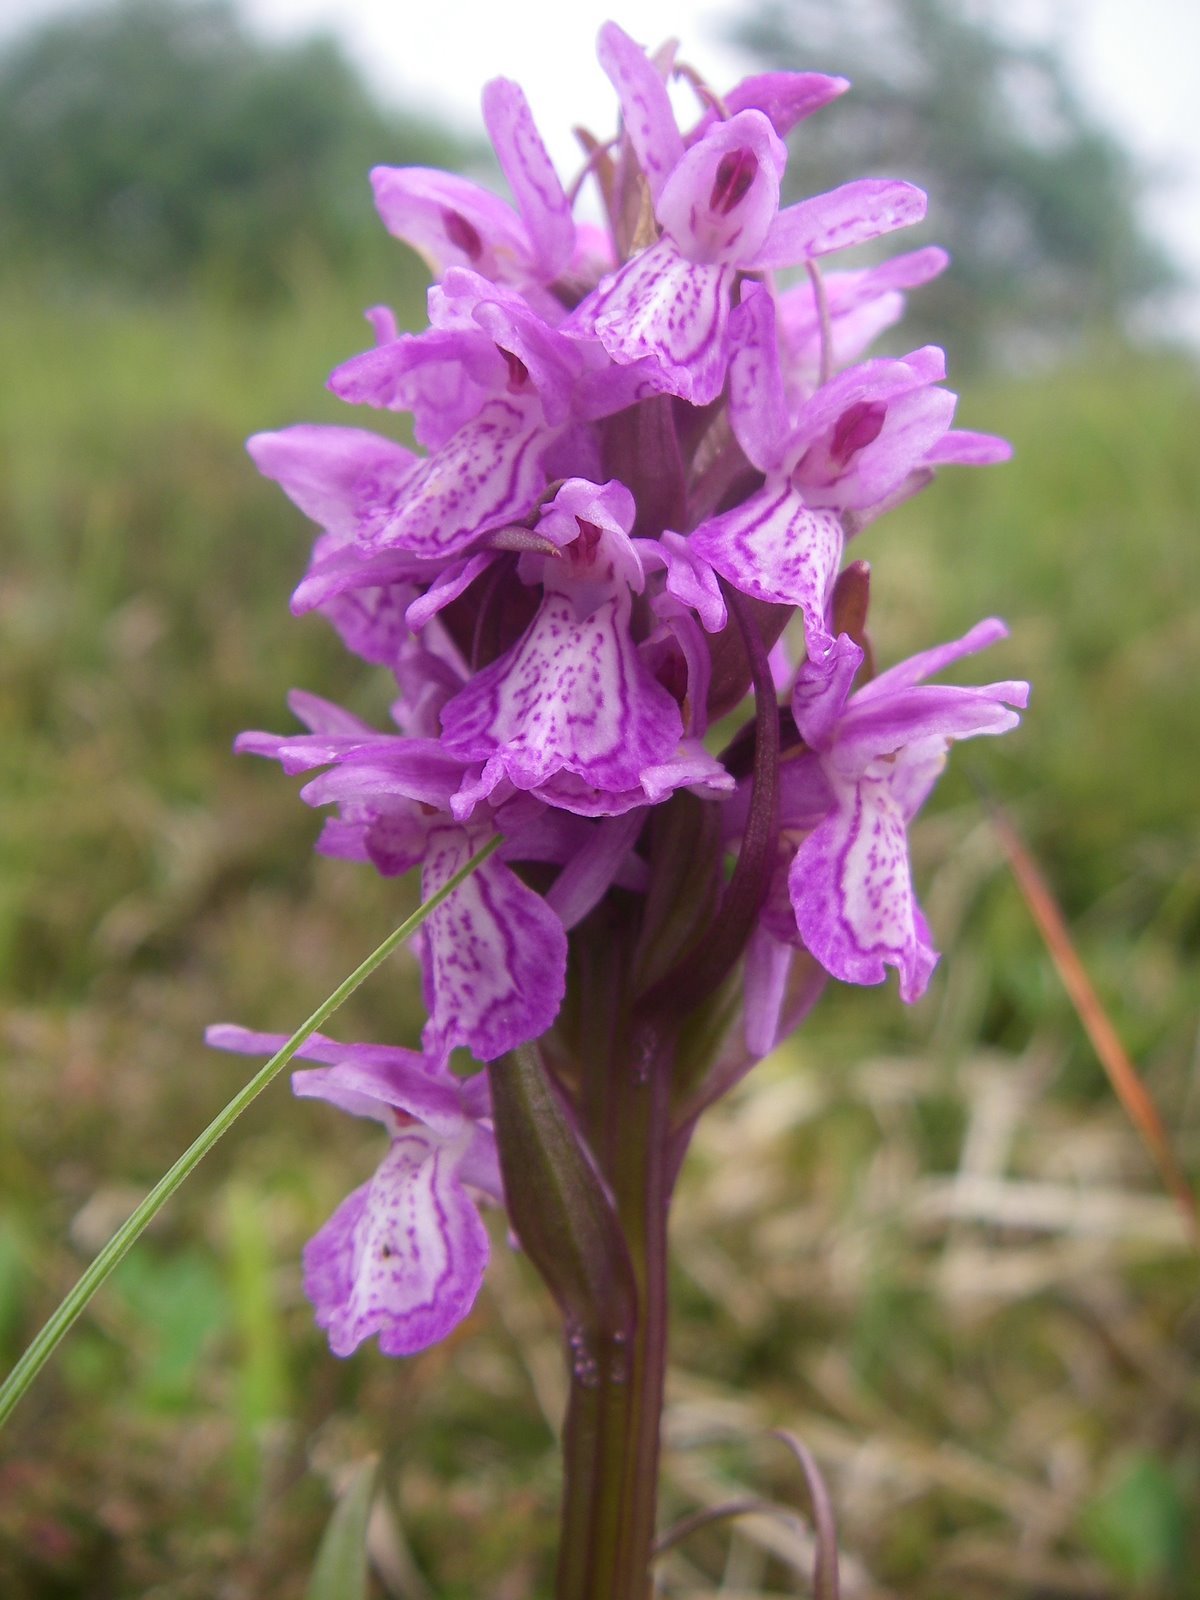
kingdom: Plantae
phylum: Tracheophyta
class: Liliopsida
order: Asparagales
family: Orchidaceae
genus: Dactylorhiza
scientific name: Dactylorhiza majalis
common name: Marsh orchid
